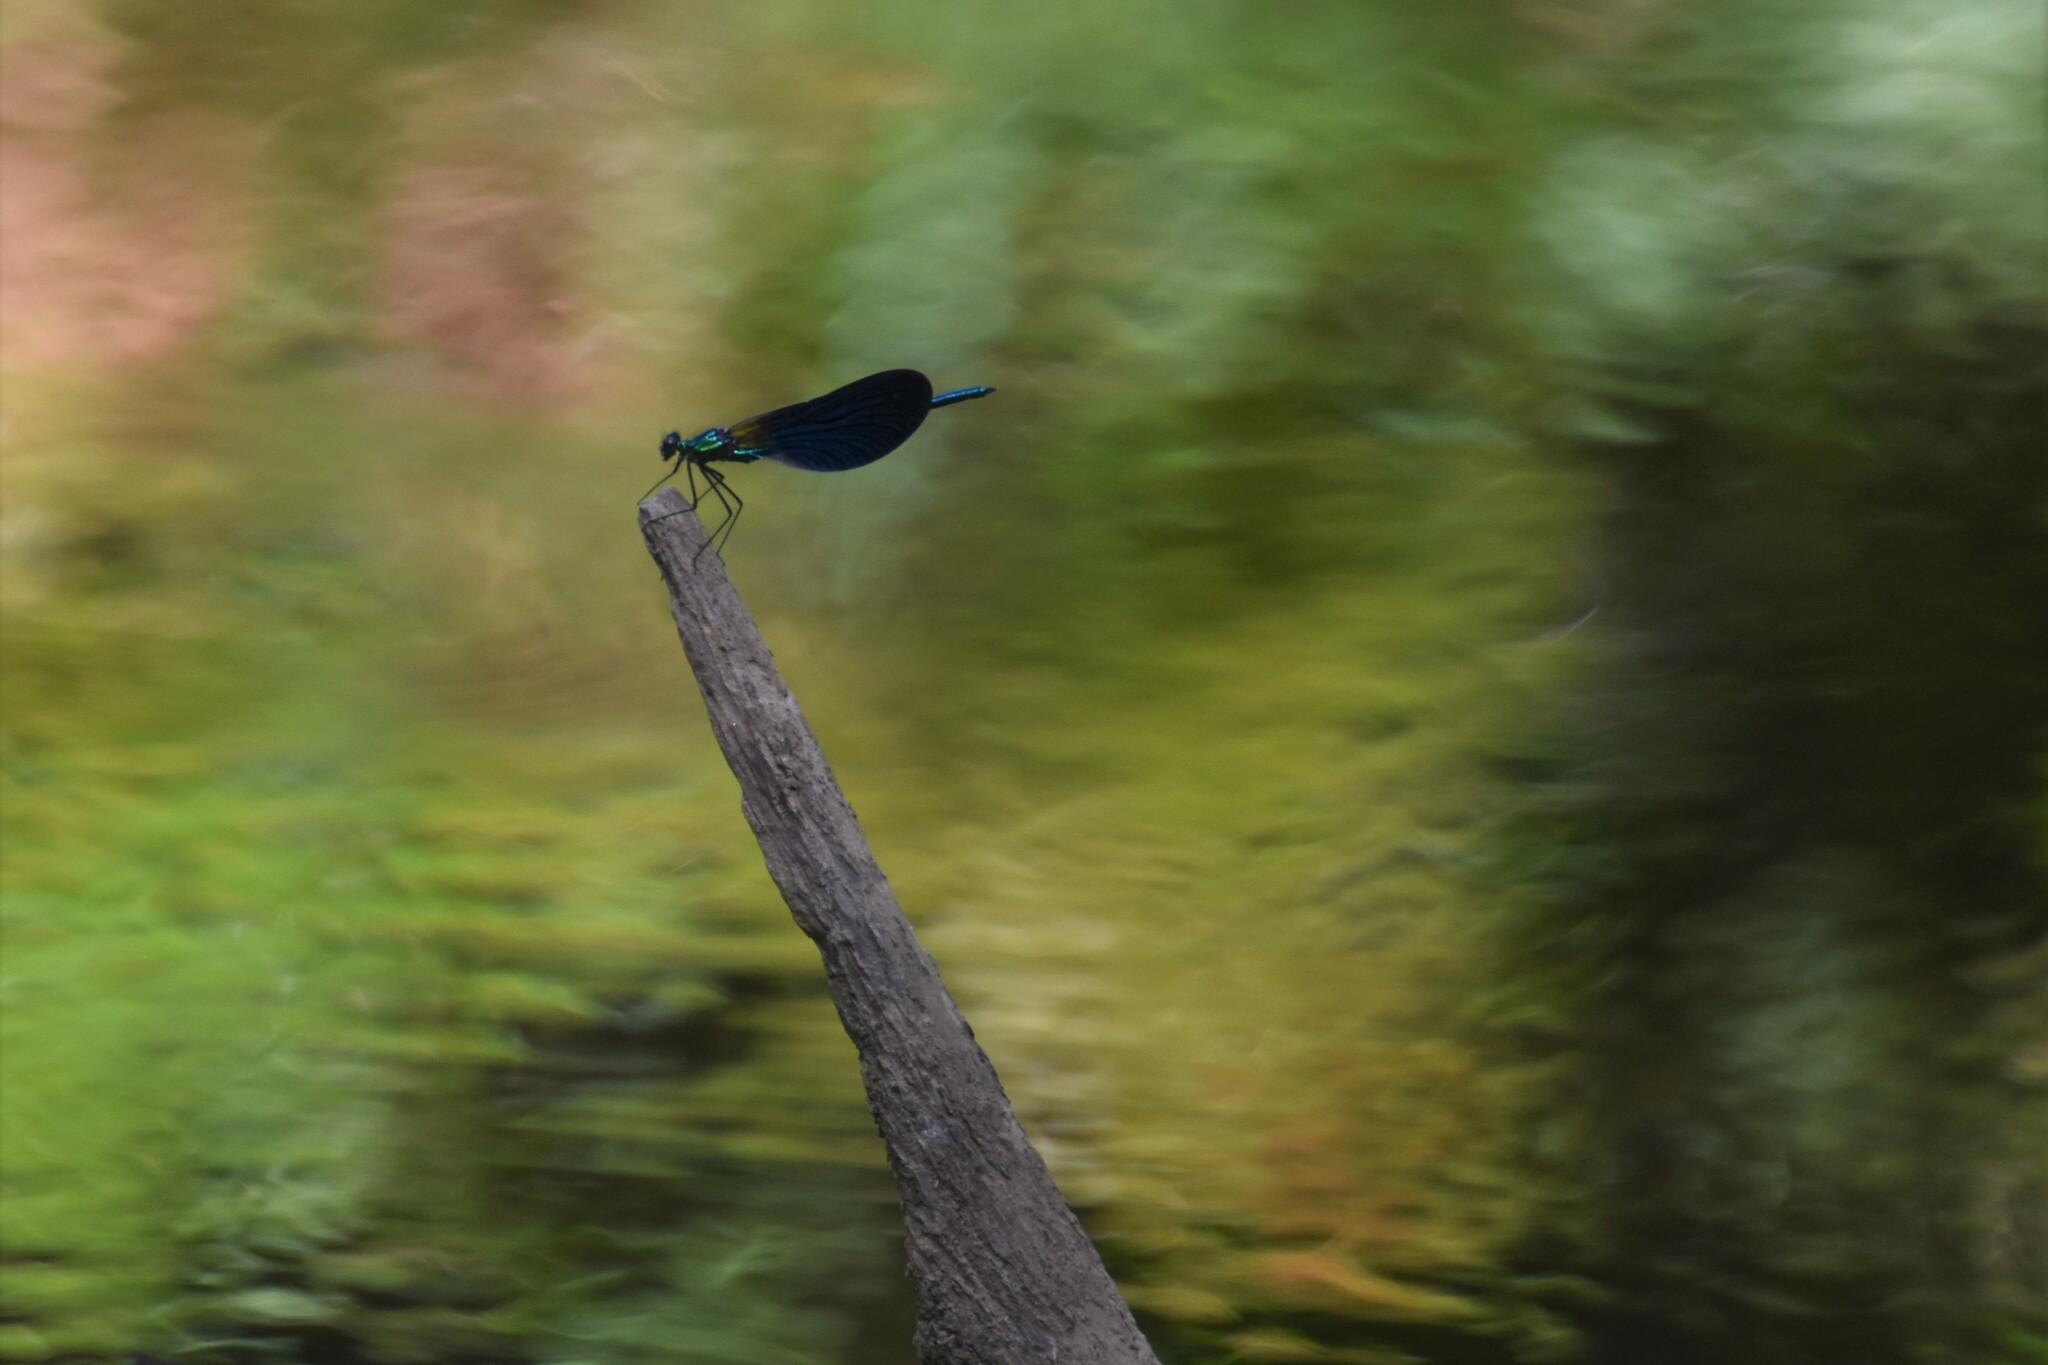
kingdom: Animalia
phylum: Arthropoda
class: Insecta
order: Odonata
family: Calopterygidae
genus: Calopteryx
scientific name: Calopteryx virgo
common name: Beautiful demoiselle
